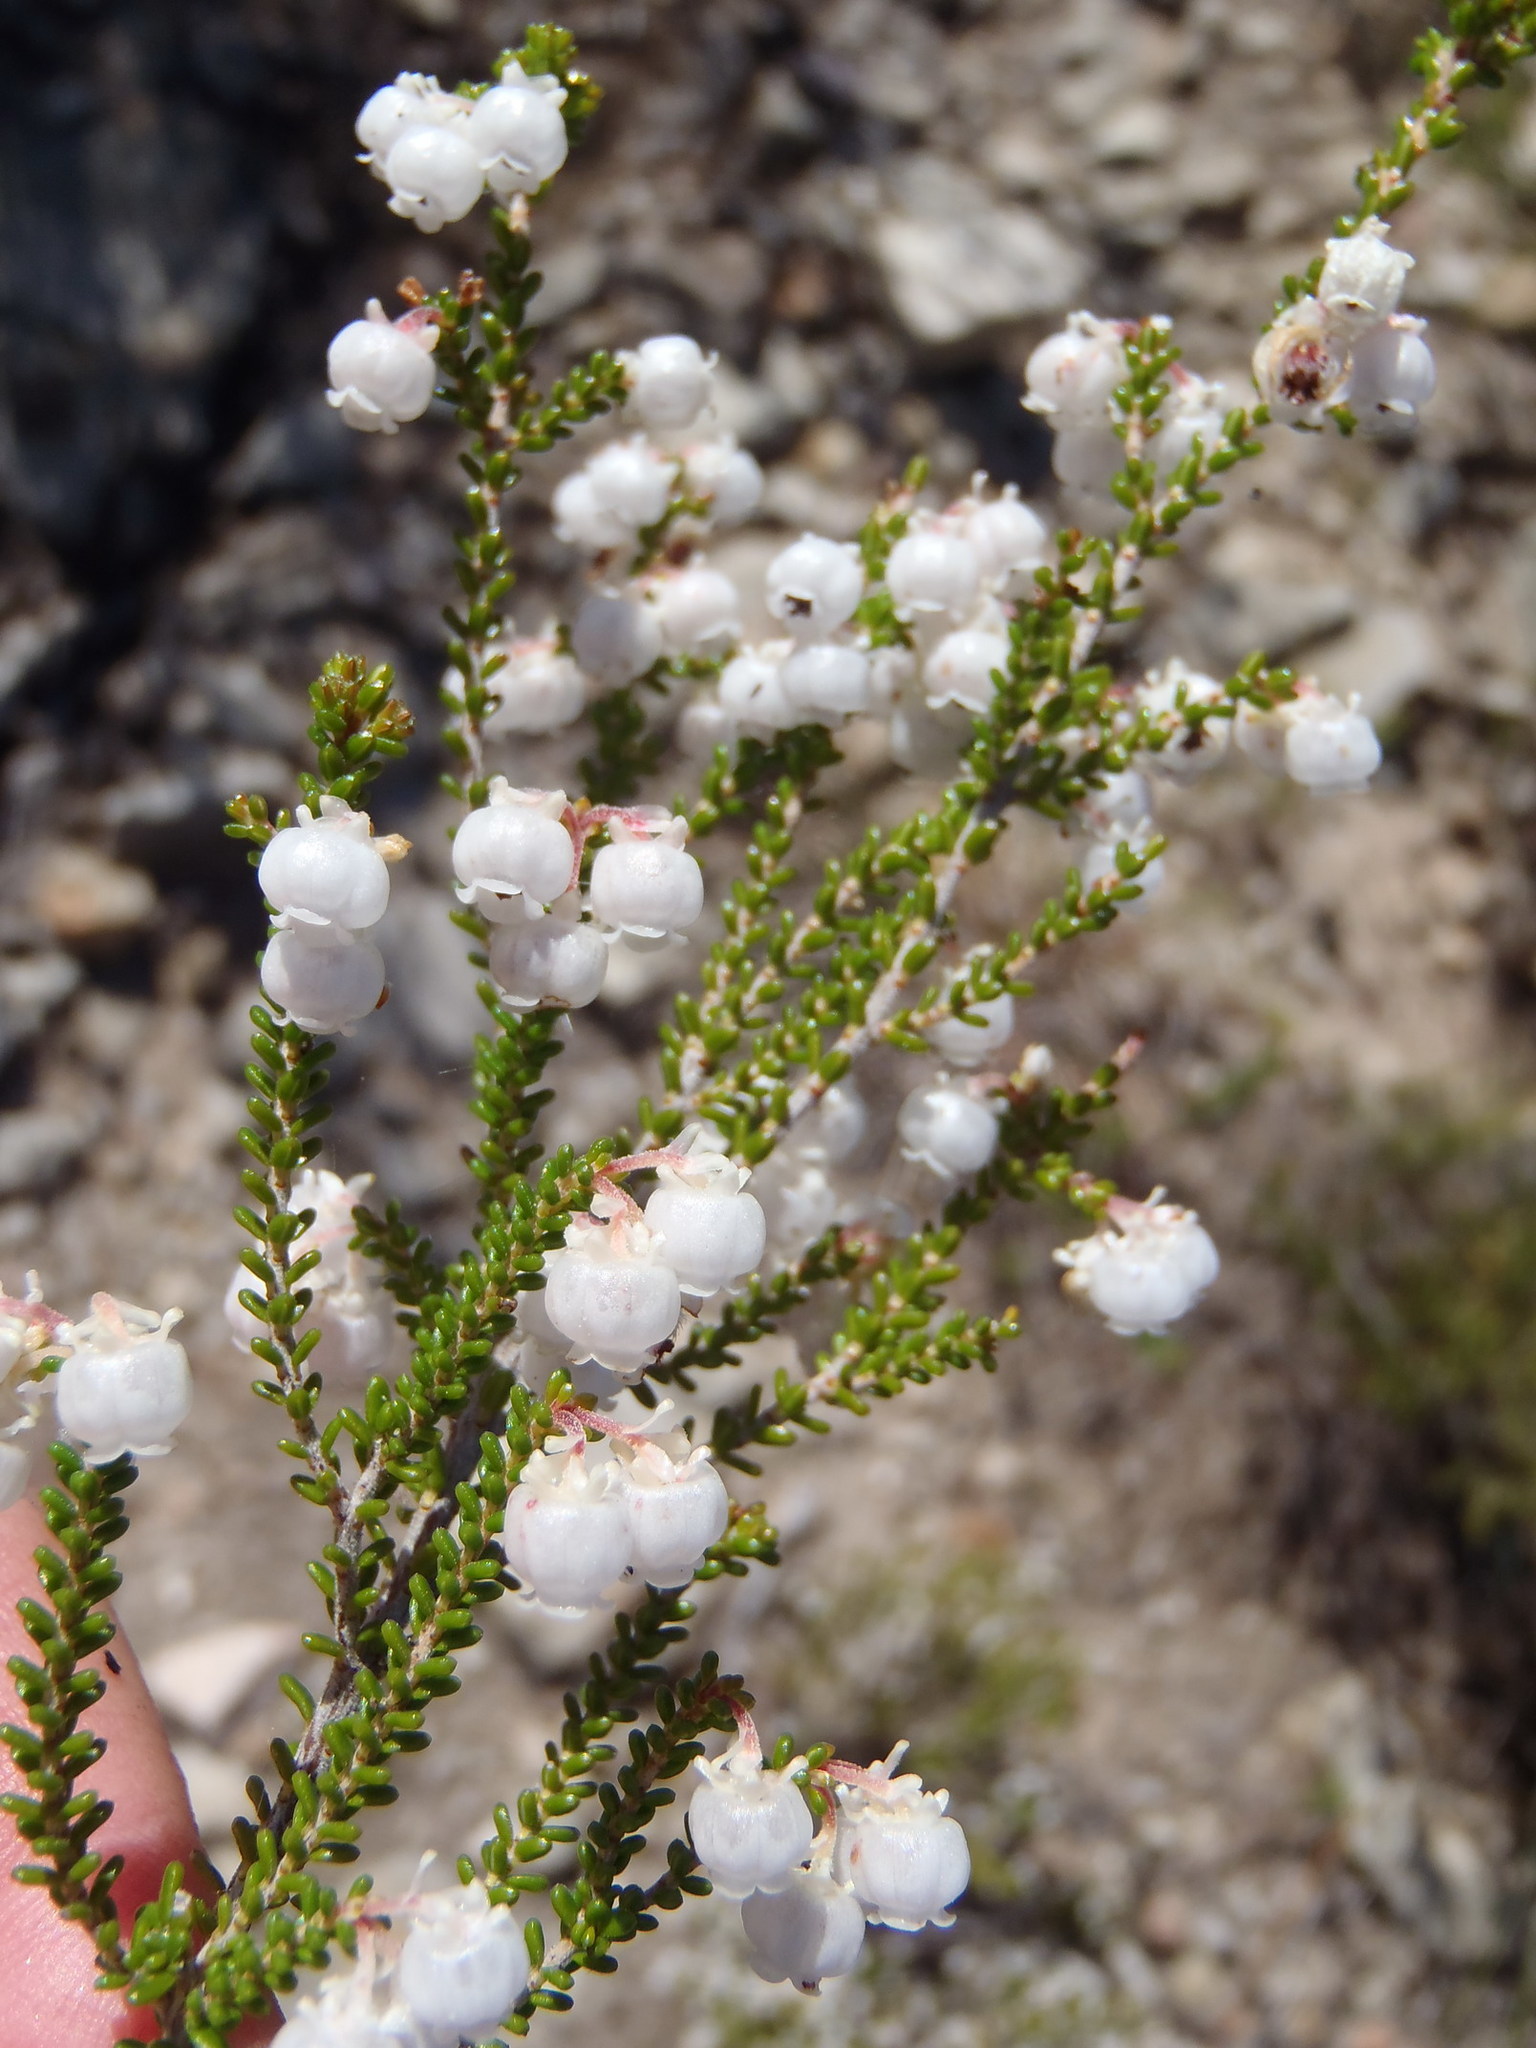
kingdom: Plantae
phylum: Tracheophyta
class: Magnoliopsida
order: Ericales
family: Ericaceae
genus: Erica
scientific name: Erica formosa
